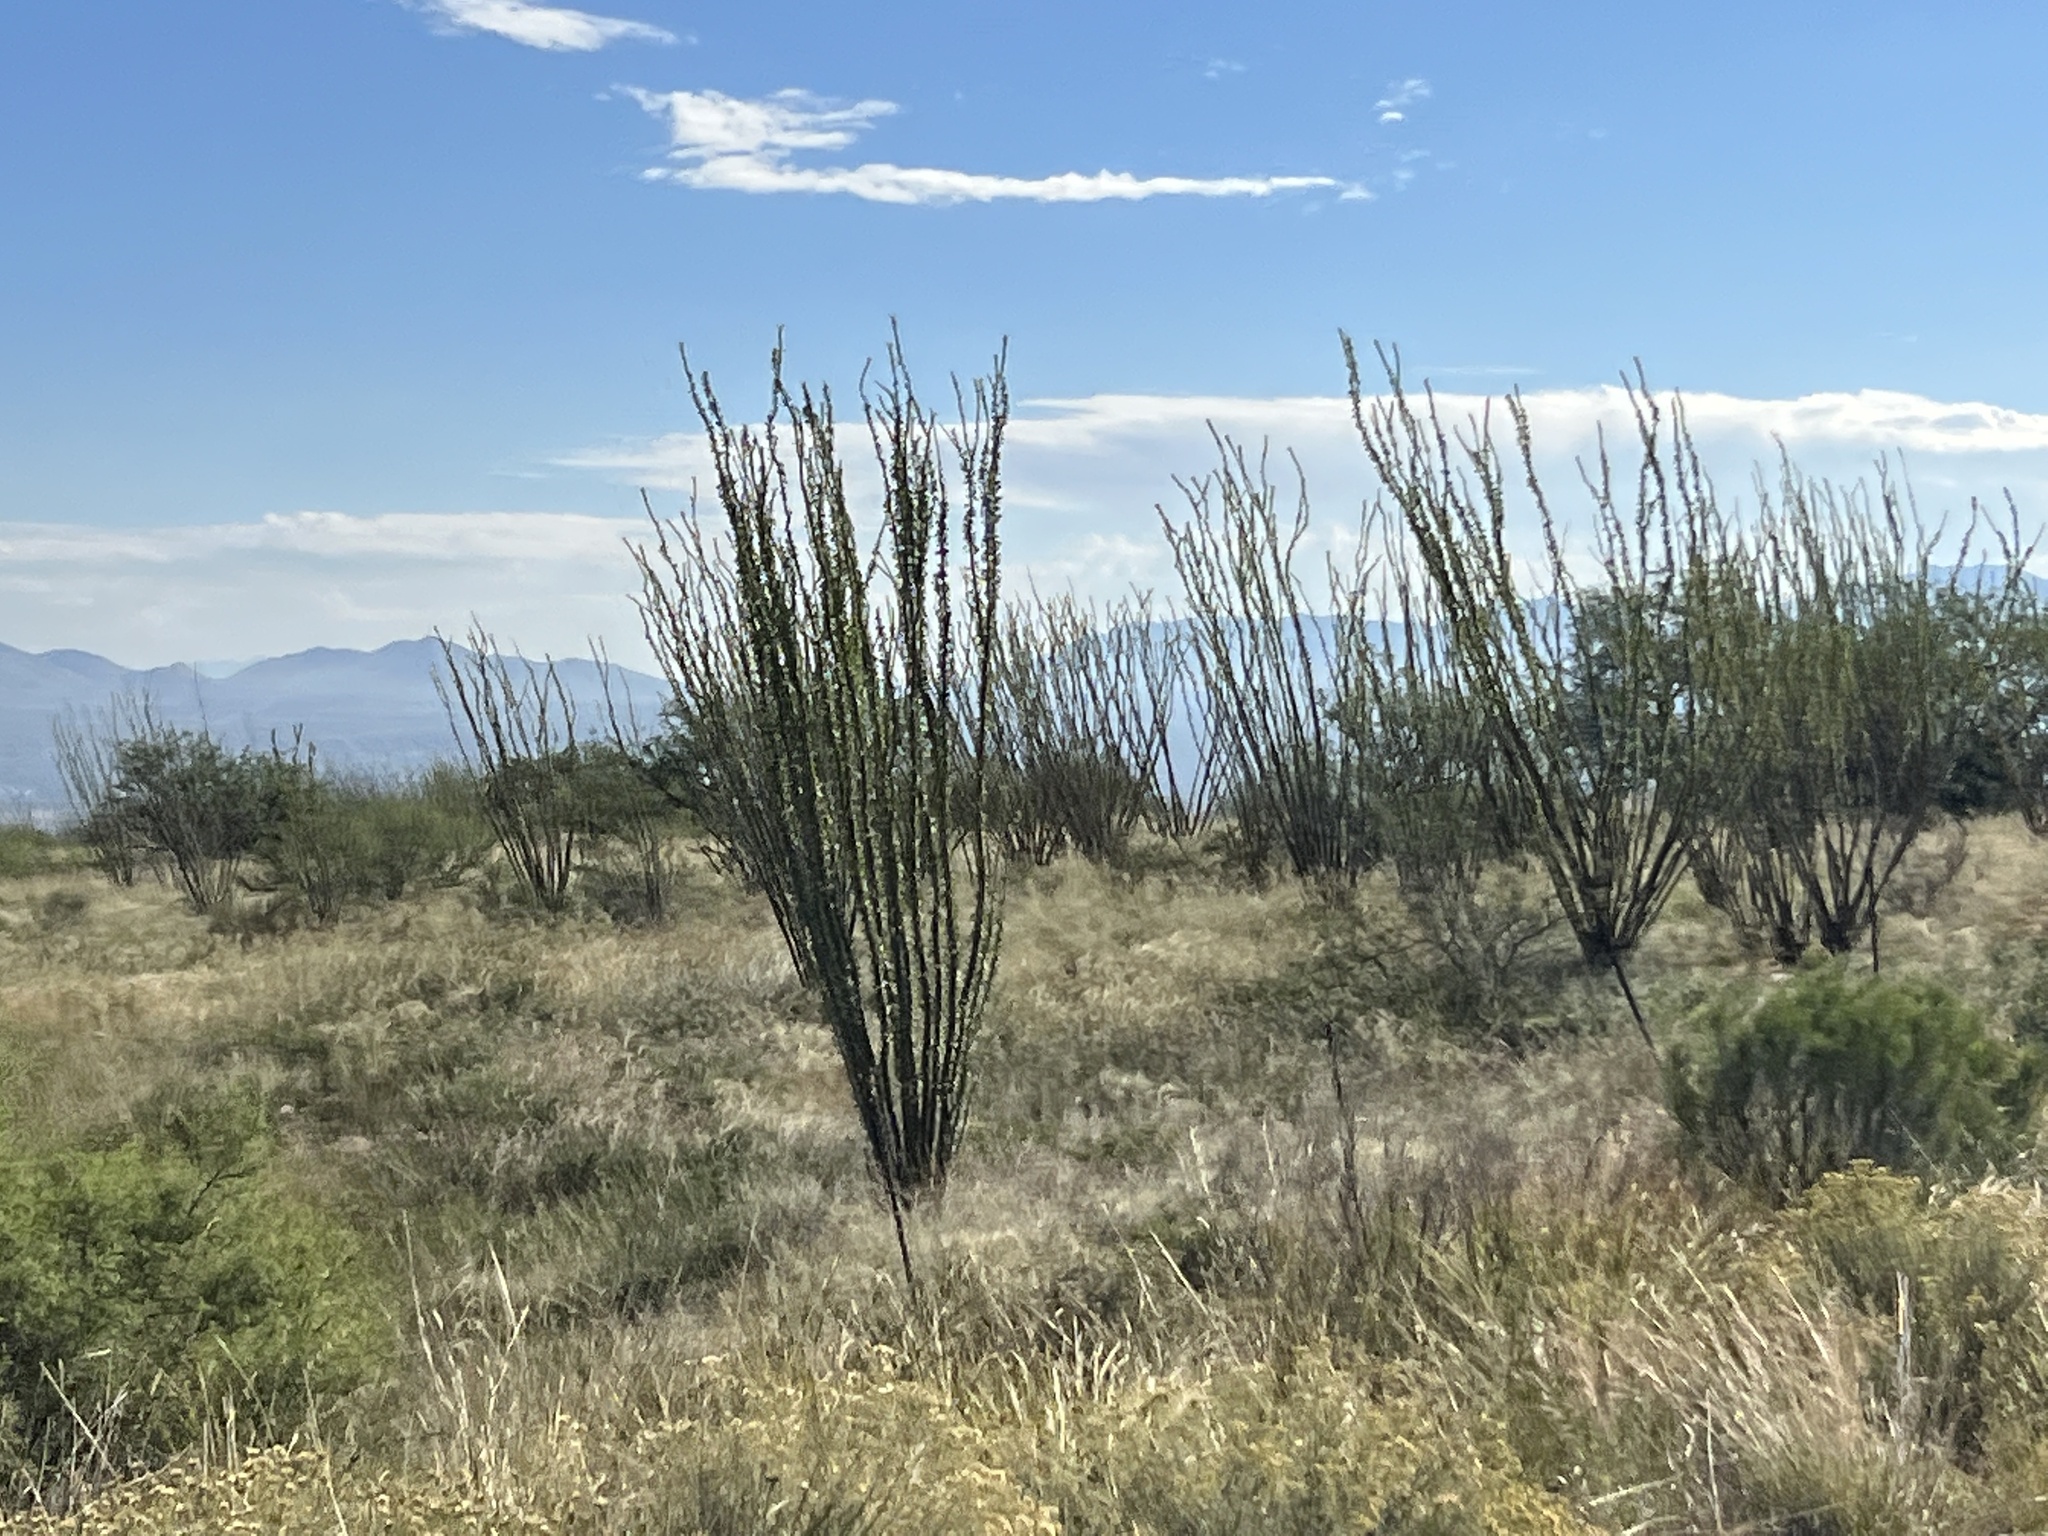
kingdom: Plantae
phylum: Tracheophyta
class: Magnoliopsida
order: Ericales
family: Fouquieriaceae
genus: Fouquieria
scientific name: Fouquieria splendens
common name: Vine-cactus
